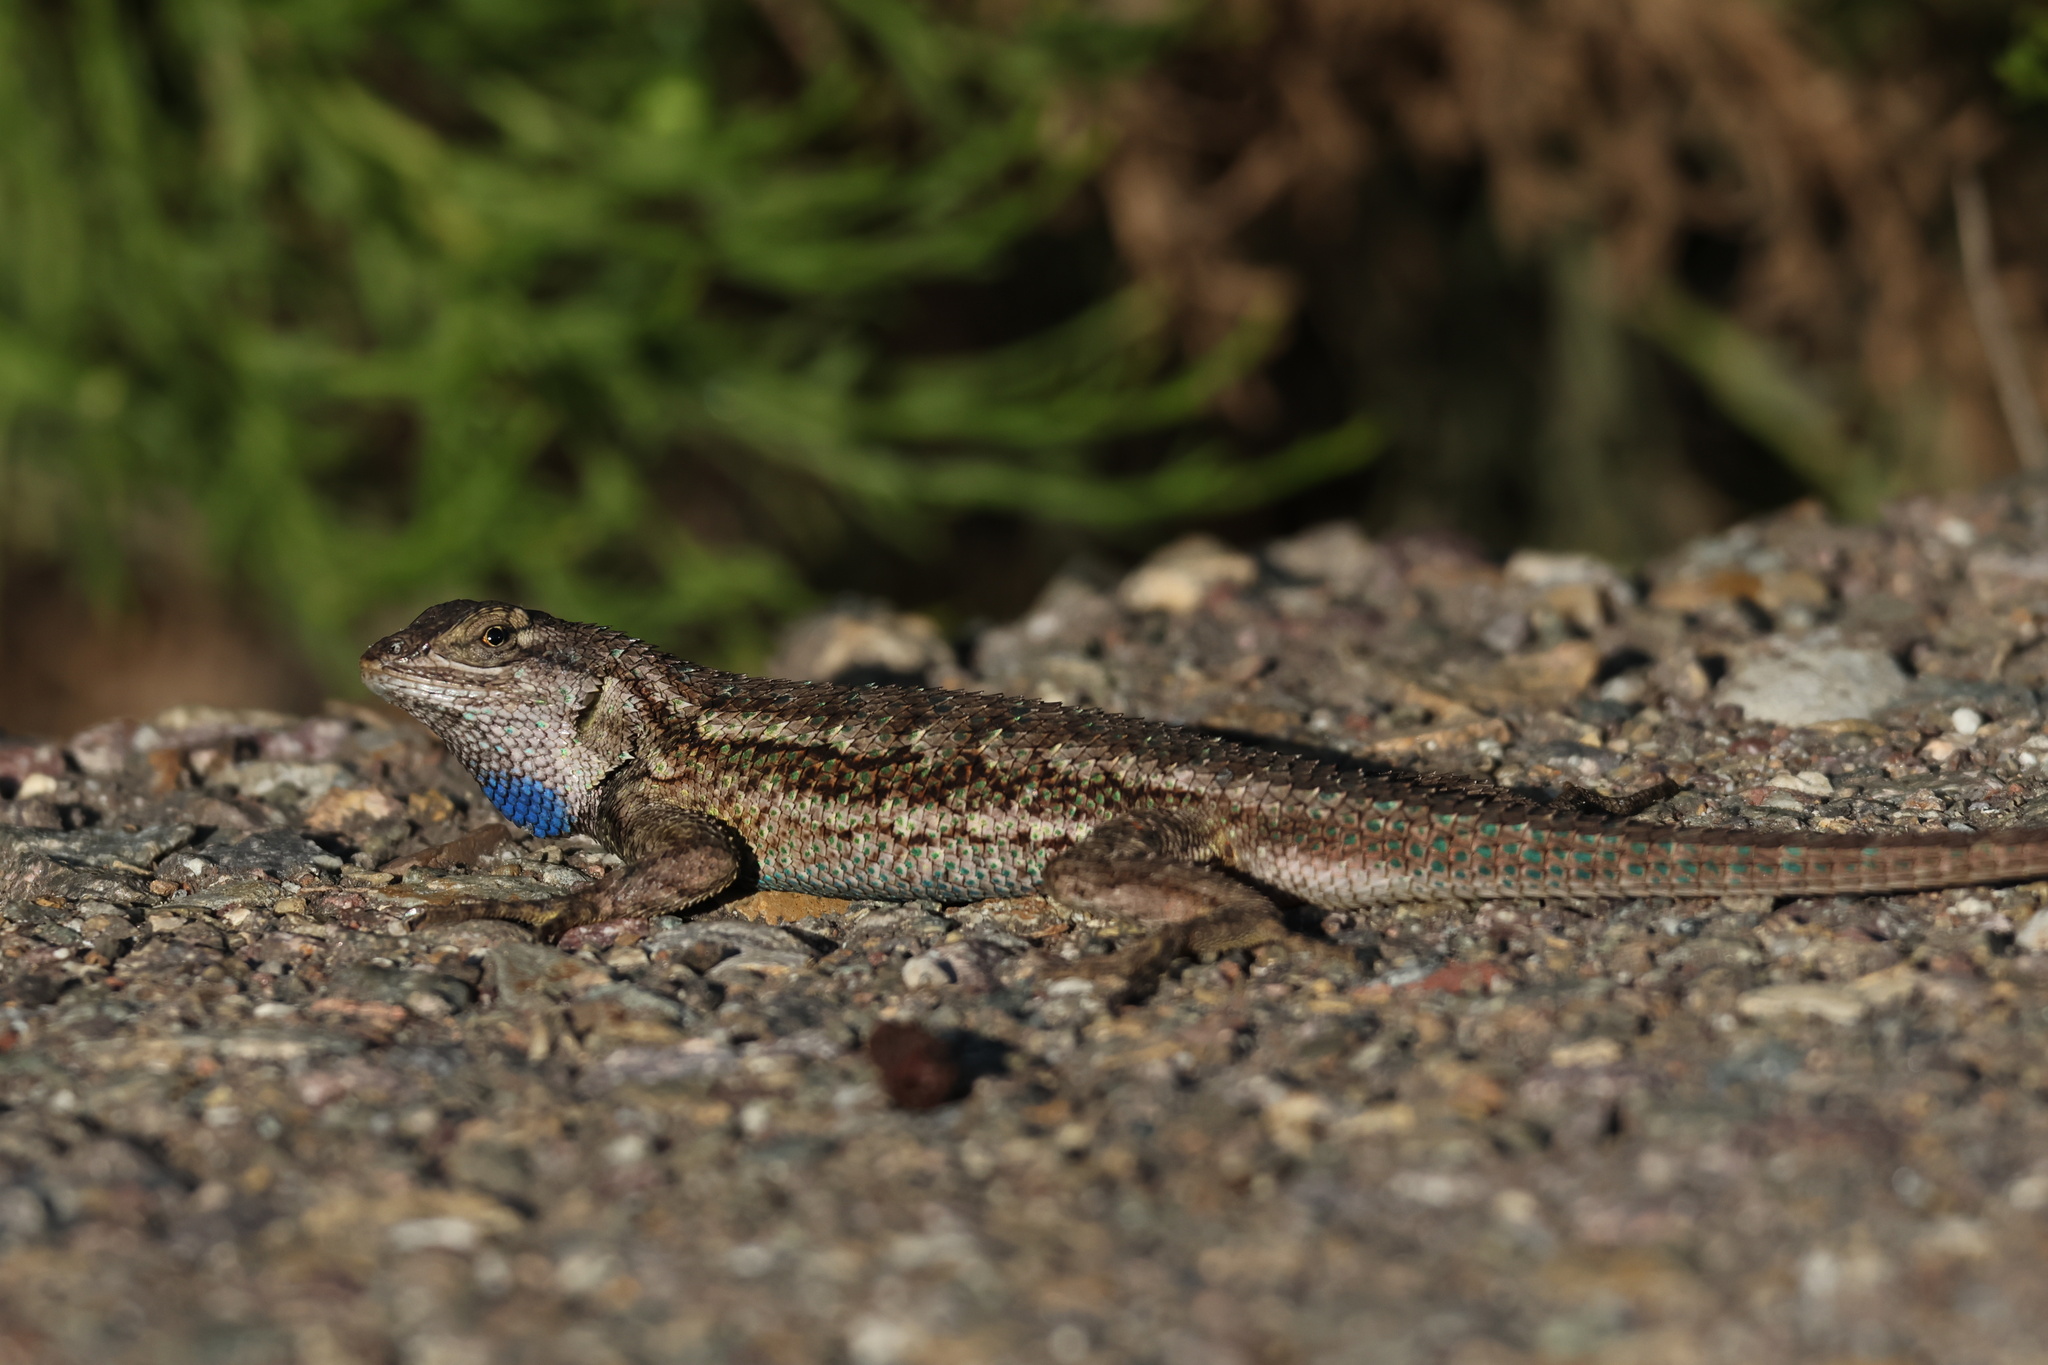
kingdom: Animalia
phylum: Chordata
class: Squamata
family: Phrynosomatidae
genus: Sceloporus
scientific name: Sceloporus occidentalis
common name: Western fence lizard
